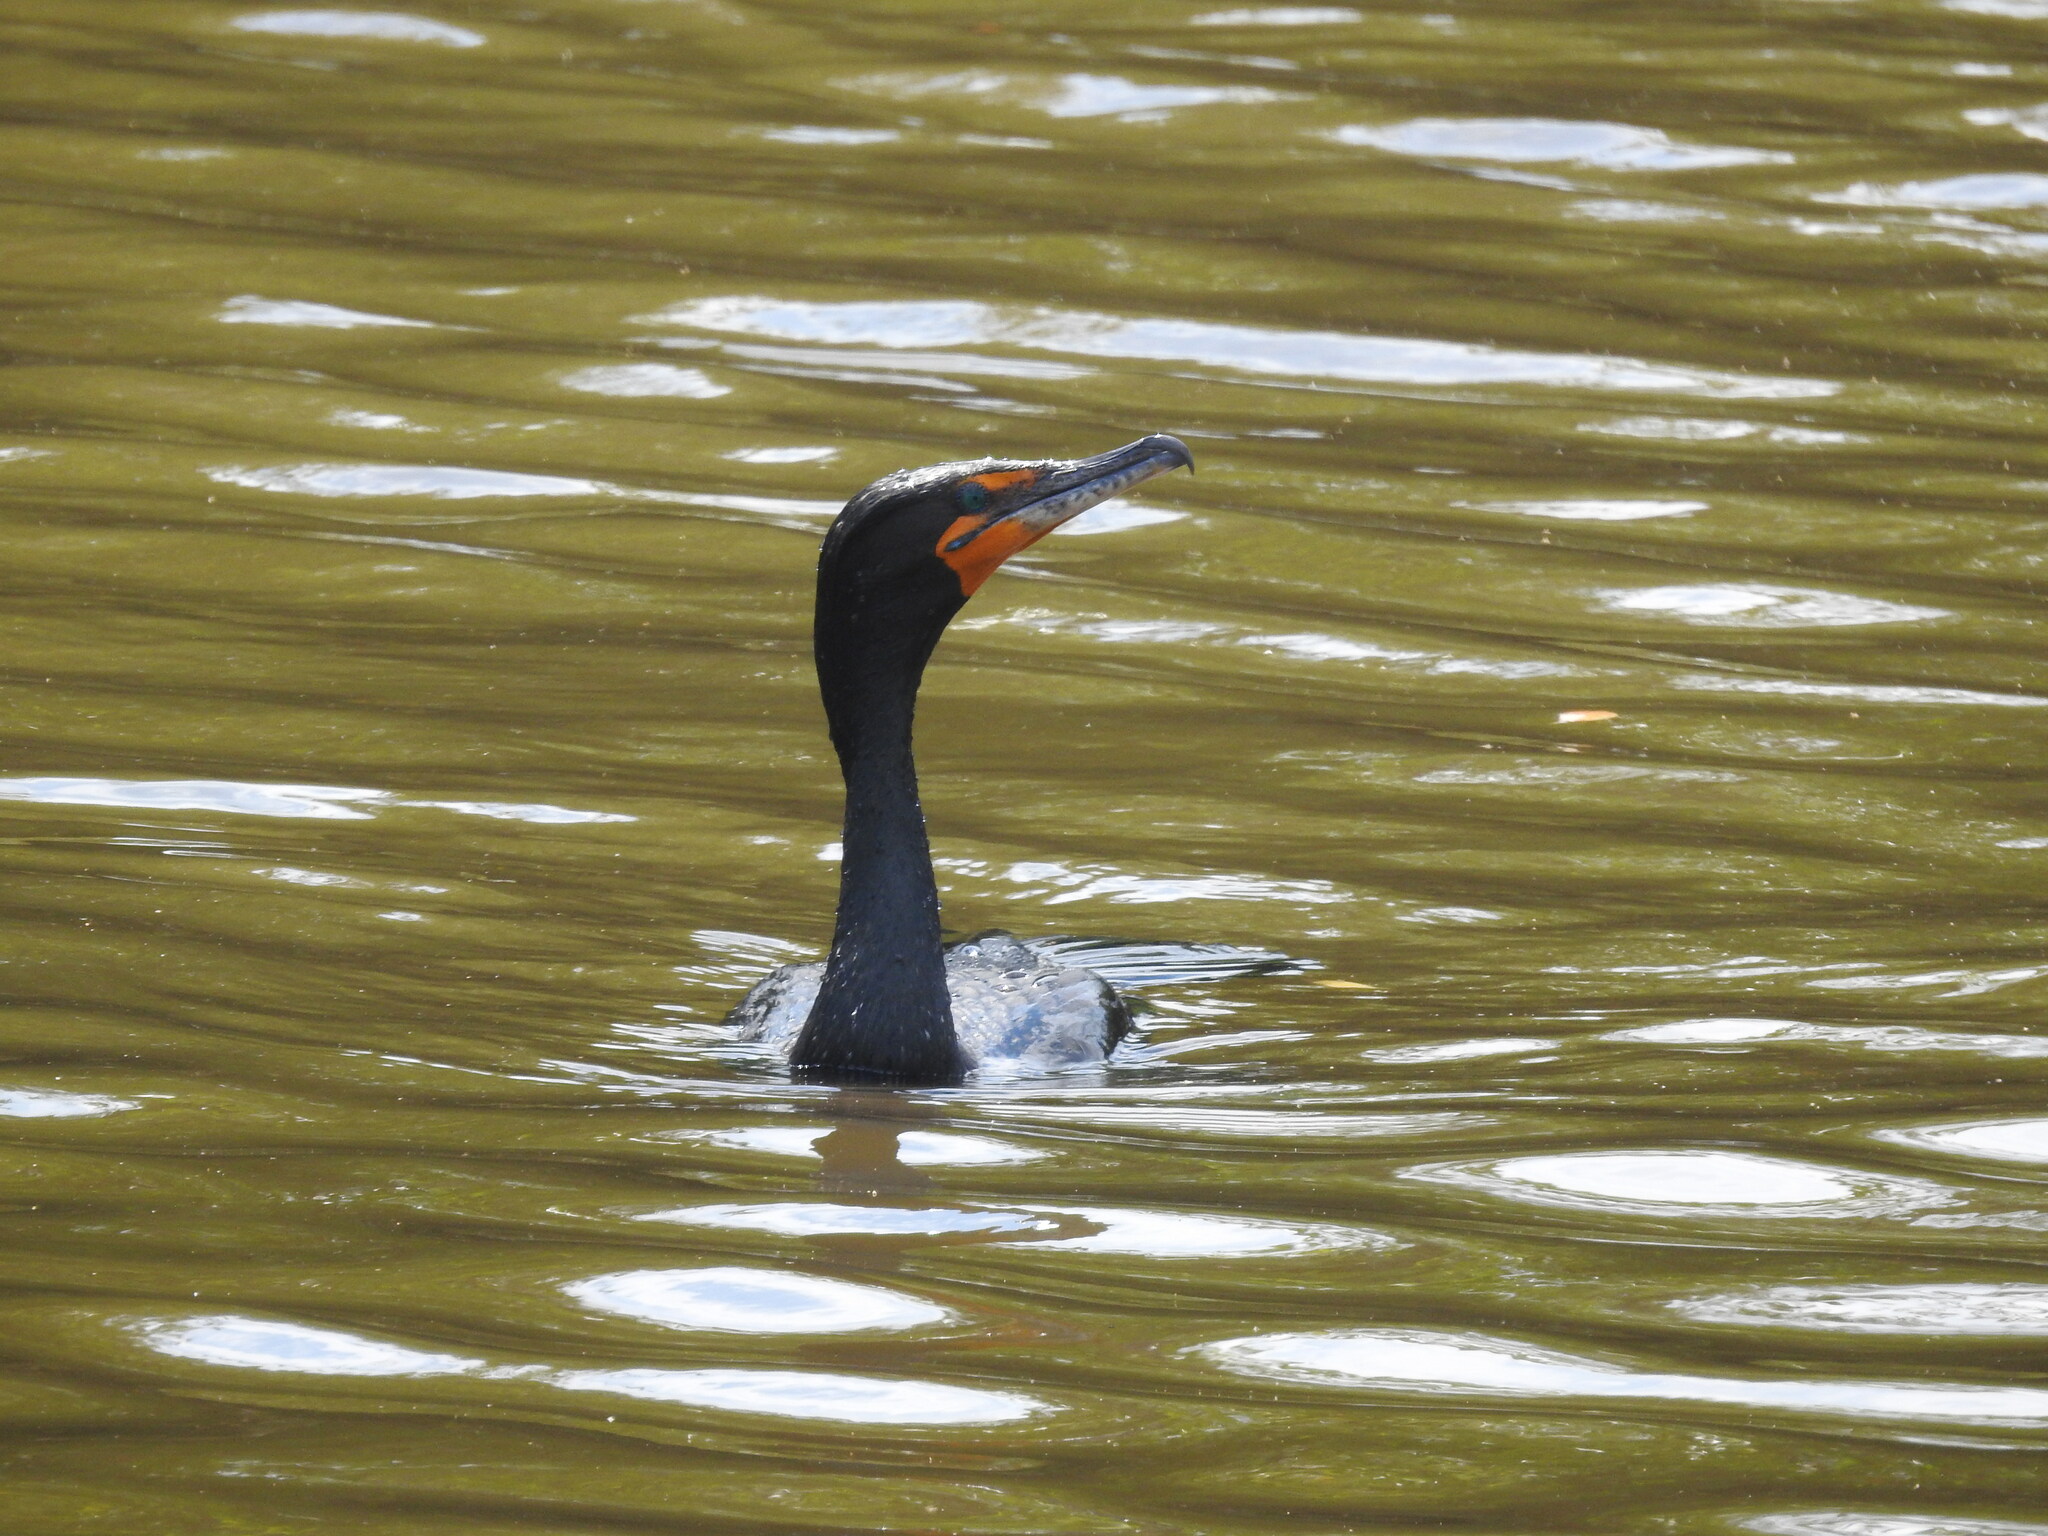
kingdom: Animalia
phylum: Chordata
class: Aves
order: Suliformes
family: Phalacrocoracidae
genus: Phalacrocorax
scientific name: Phalacrocorax auritus
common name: Double-crested cormorant
